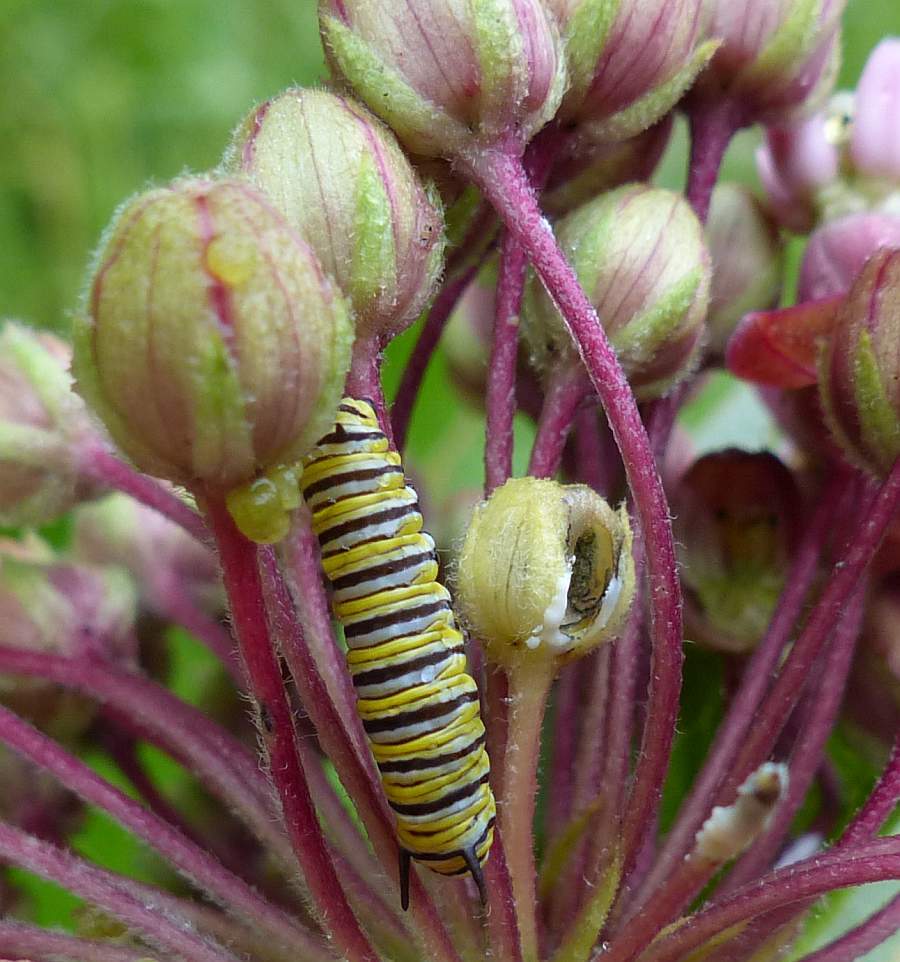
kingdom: Animalia
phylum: Arthropoda
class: Insecta
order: Lepidoptera
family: Nymphalidae
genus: Danaus
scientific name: Danaus plexippus
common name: Monarch
